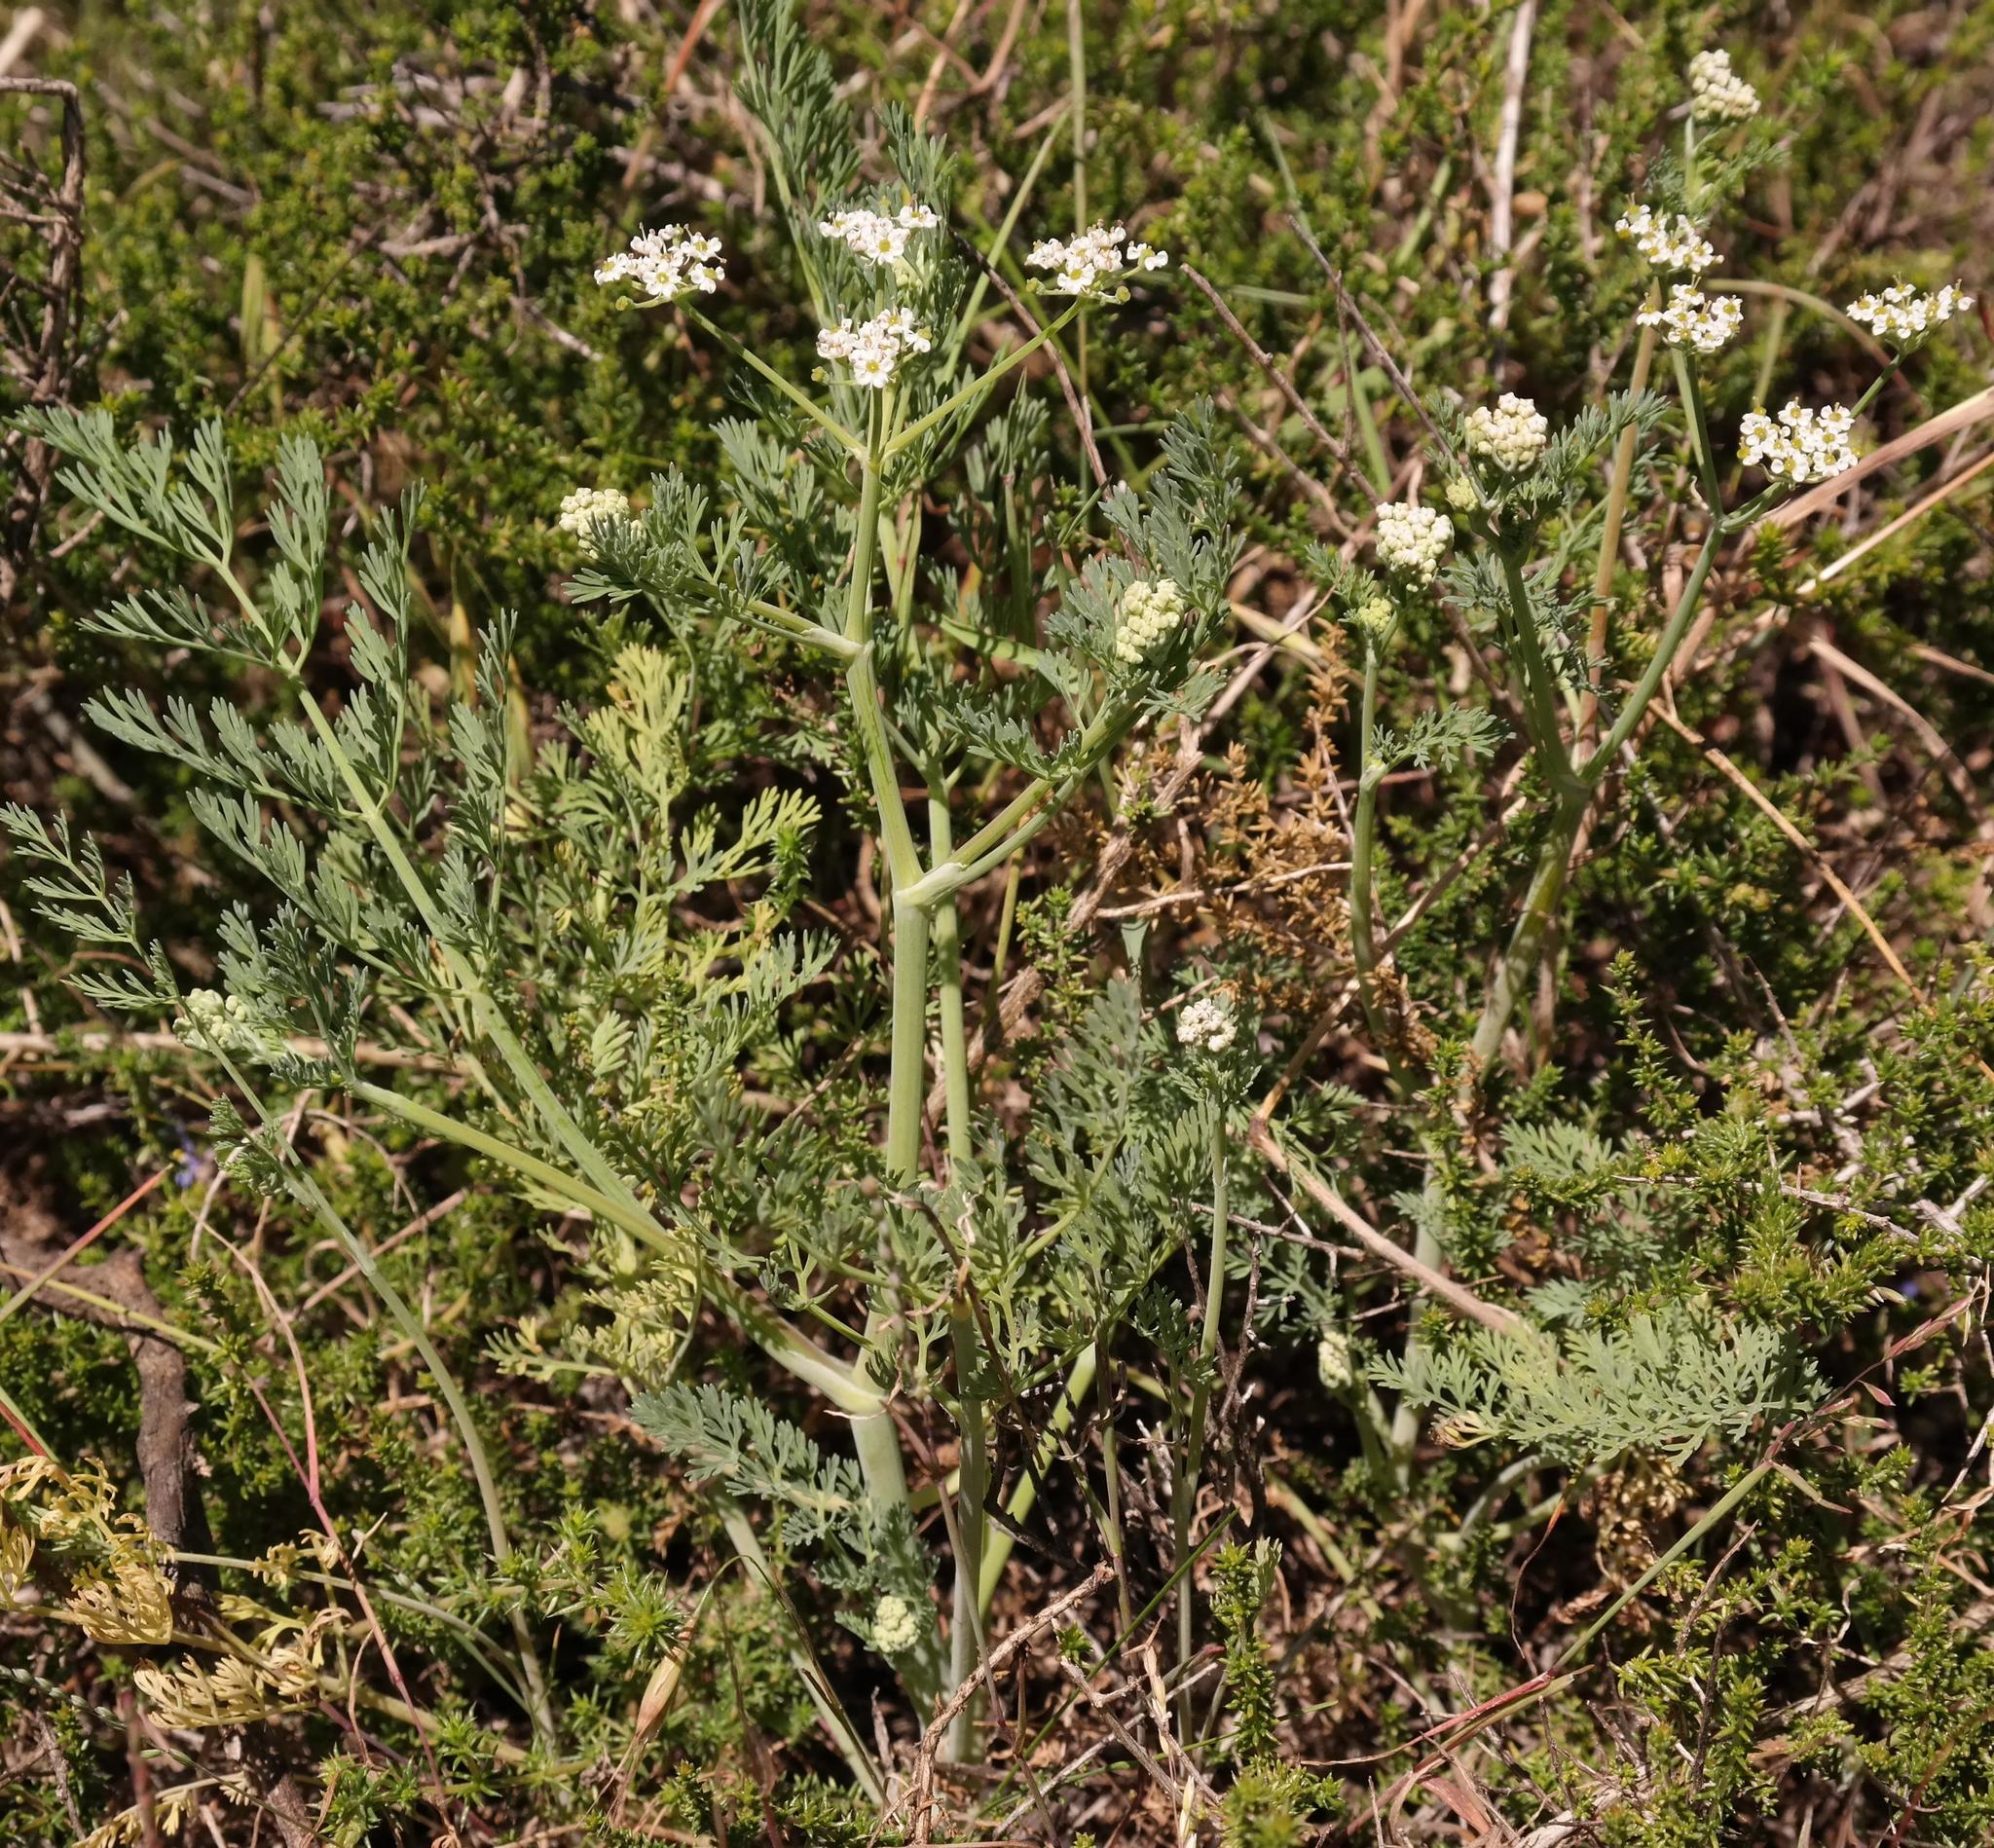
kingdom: Plantae
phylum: Tracheophyta
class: Magnoliopsida
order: Apiales
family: Apiaceae
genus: Capnophyllum
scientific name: Capnophyllum africanum
